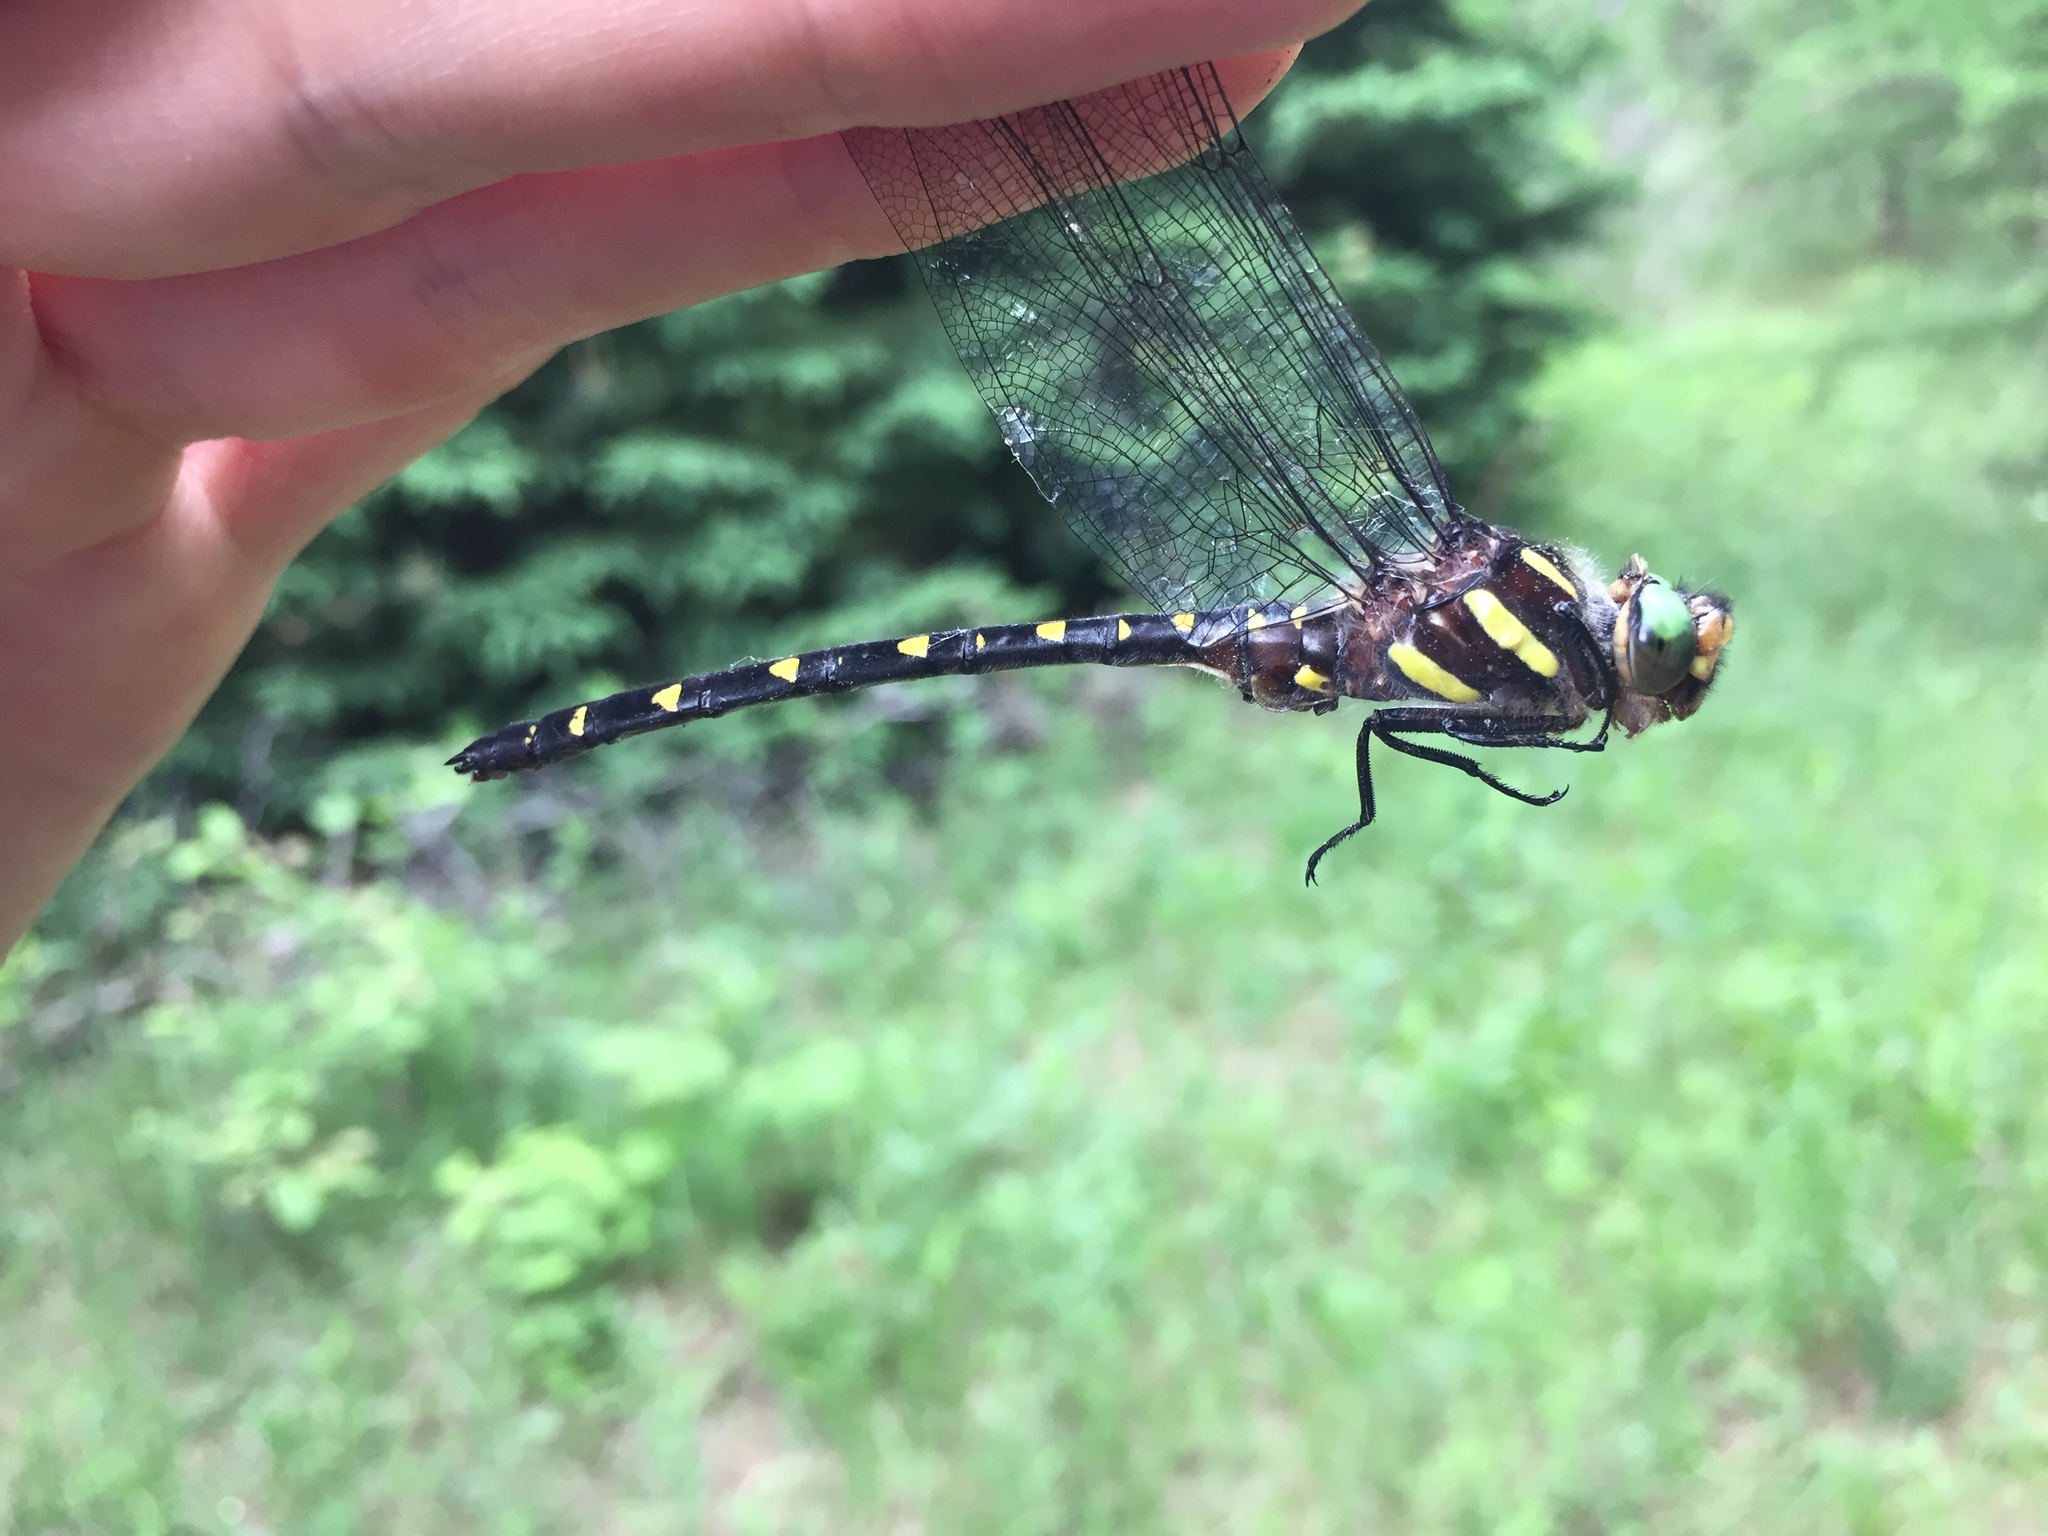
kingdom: Animalia
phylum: Arthropoda
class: Insecta
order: Odonata
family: Cordulegastridae
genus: Cordulegaster
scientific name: Cordulegaster maculata
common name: Twin-spotted spiketail
